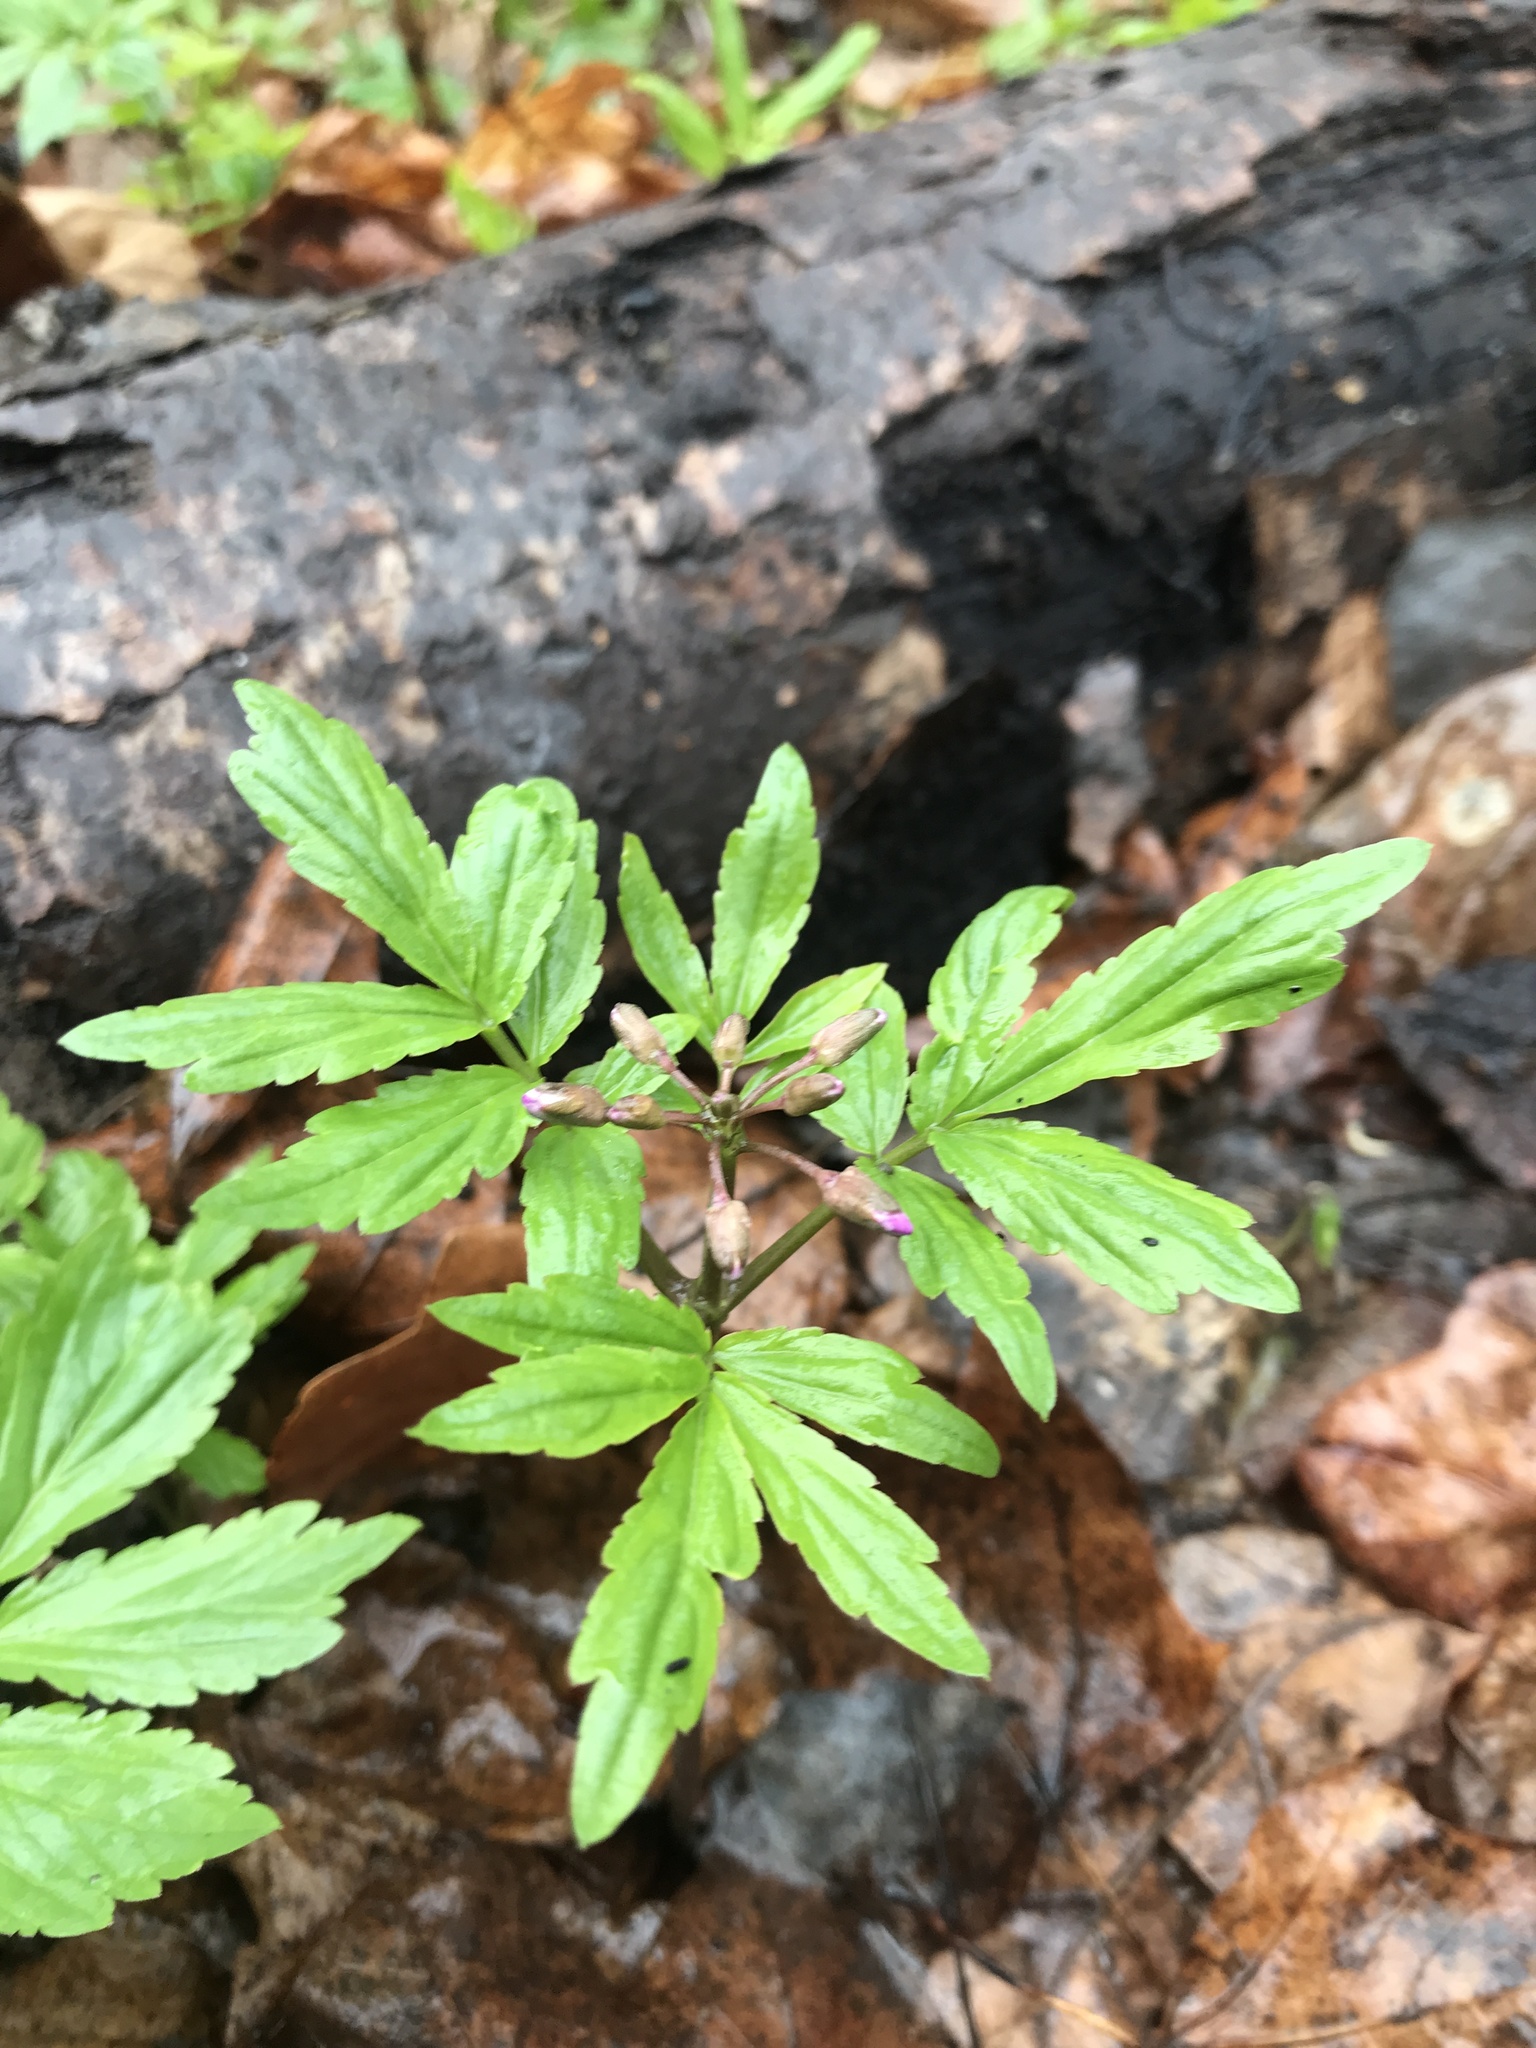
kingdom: Plantae
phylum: Tracheophyta
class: Magnoliopsida
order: Brassicales
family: Brassicaceae
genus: Cardamine
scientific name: Cardamine quinquefolia
